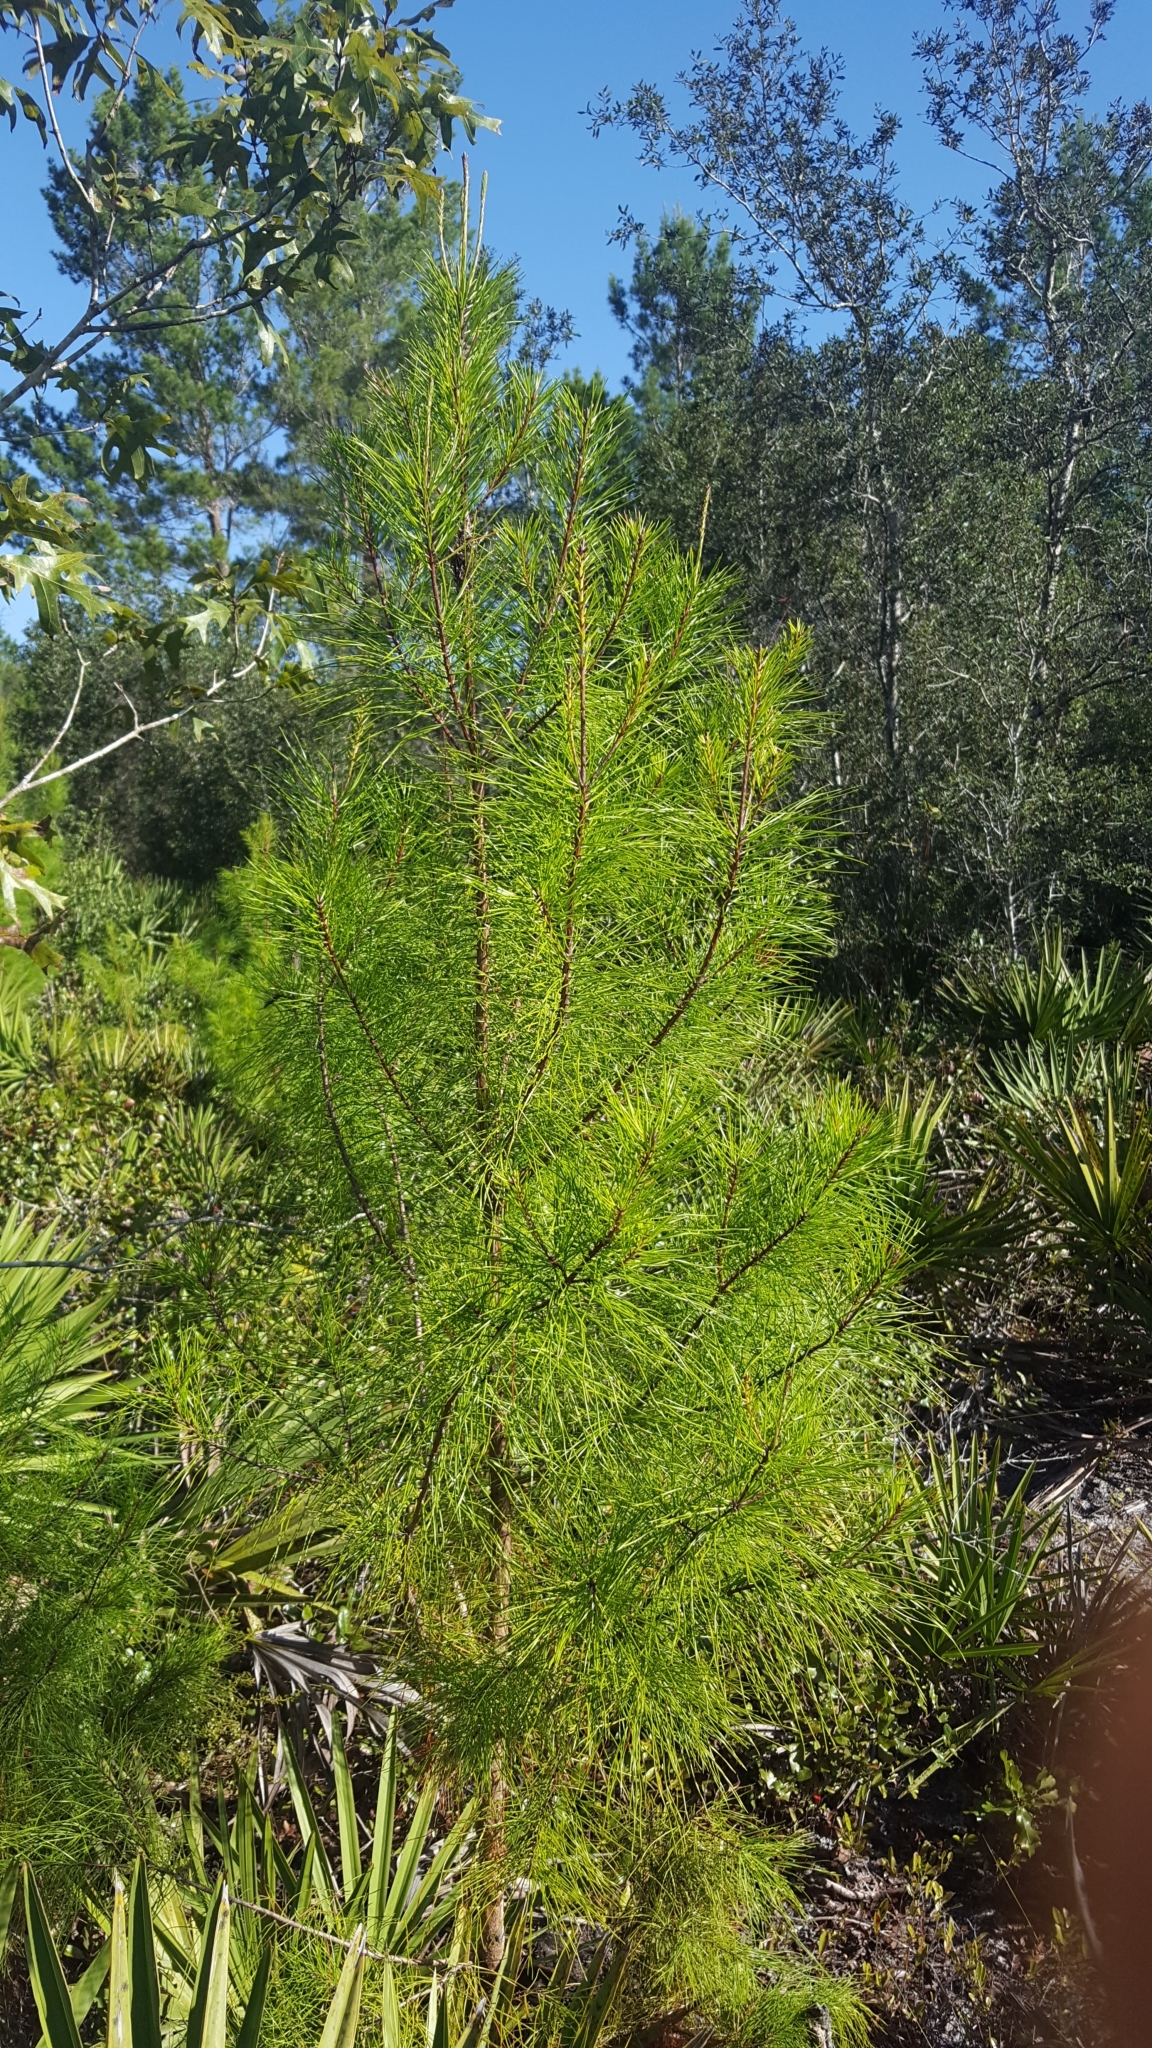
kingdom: Plantae
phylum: Tracheophyta
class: Pinopsida
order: Pinales
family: Pinaceae
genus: Pinus
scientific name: Pinus clausa
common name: Sand pine
